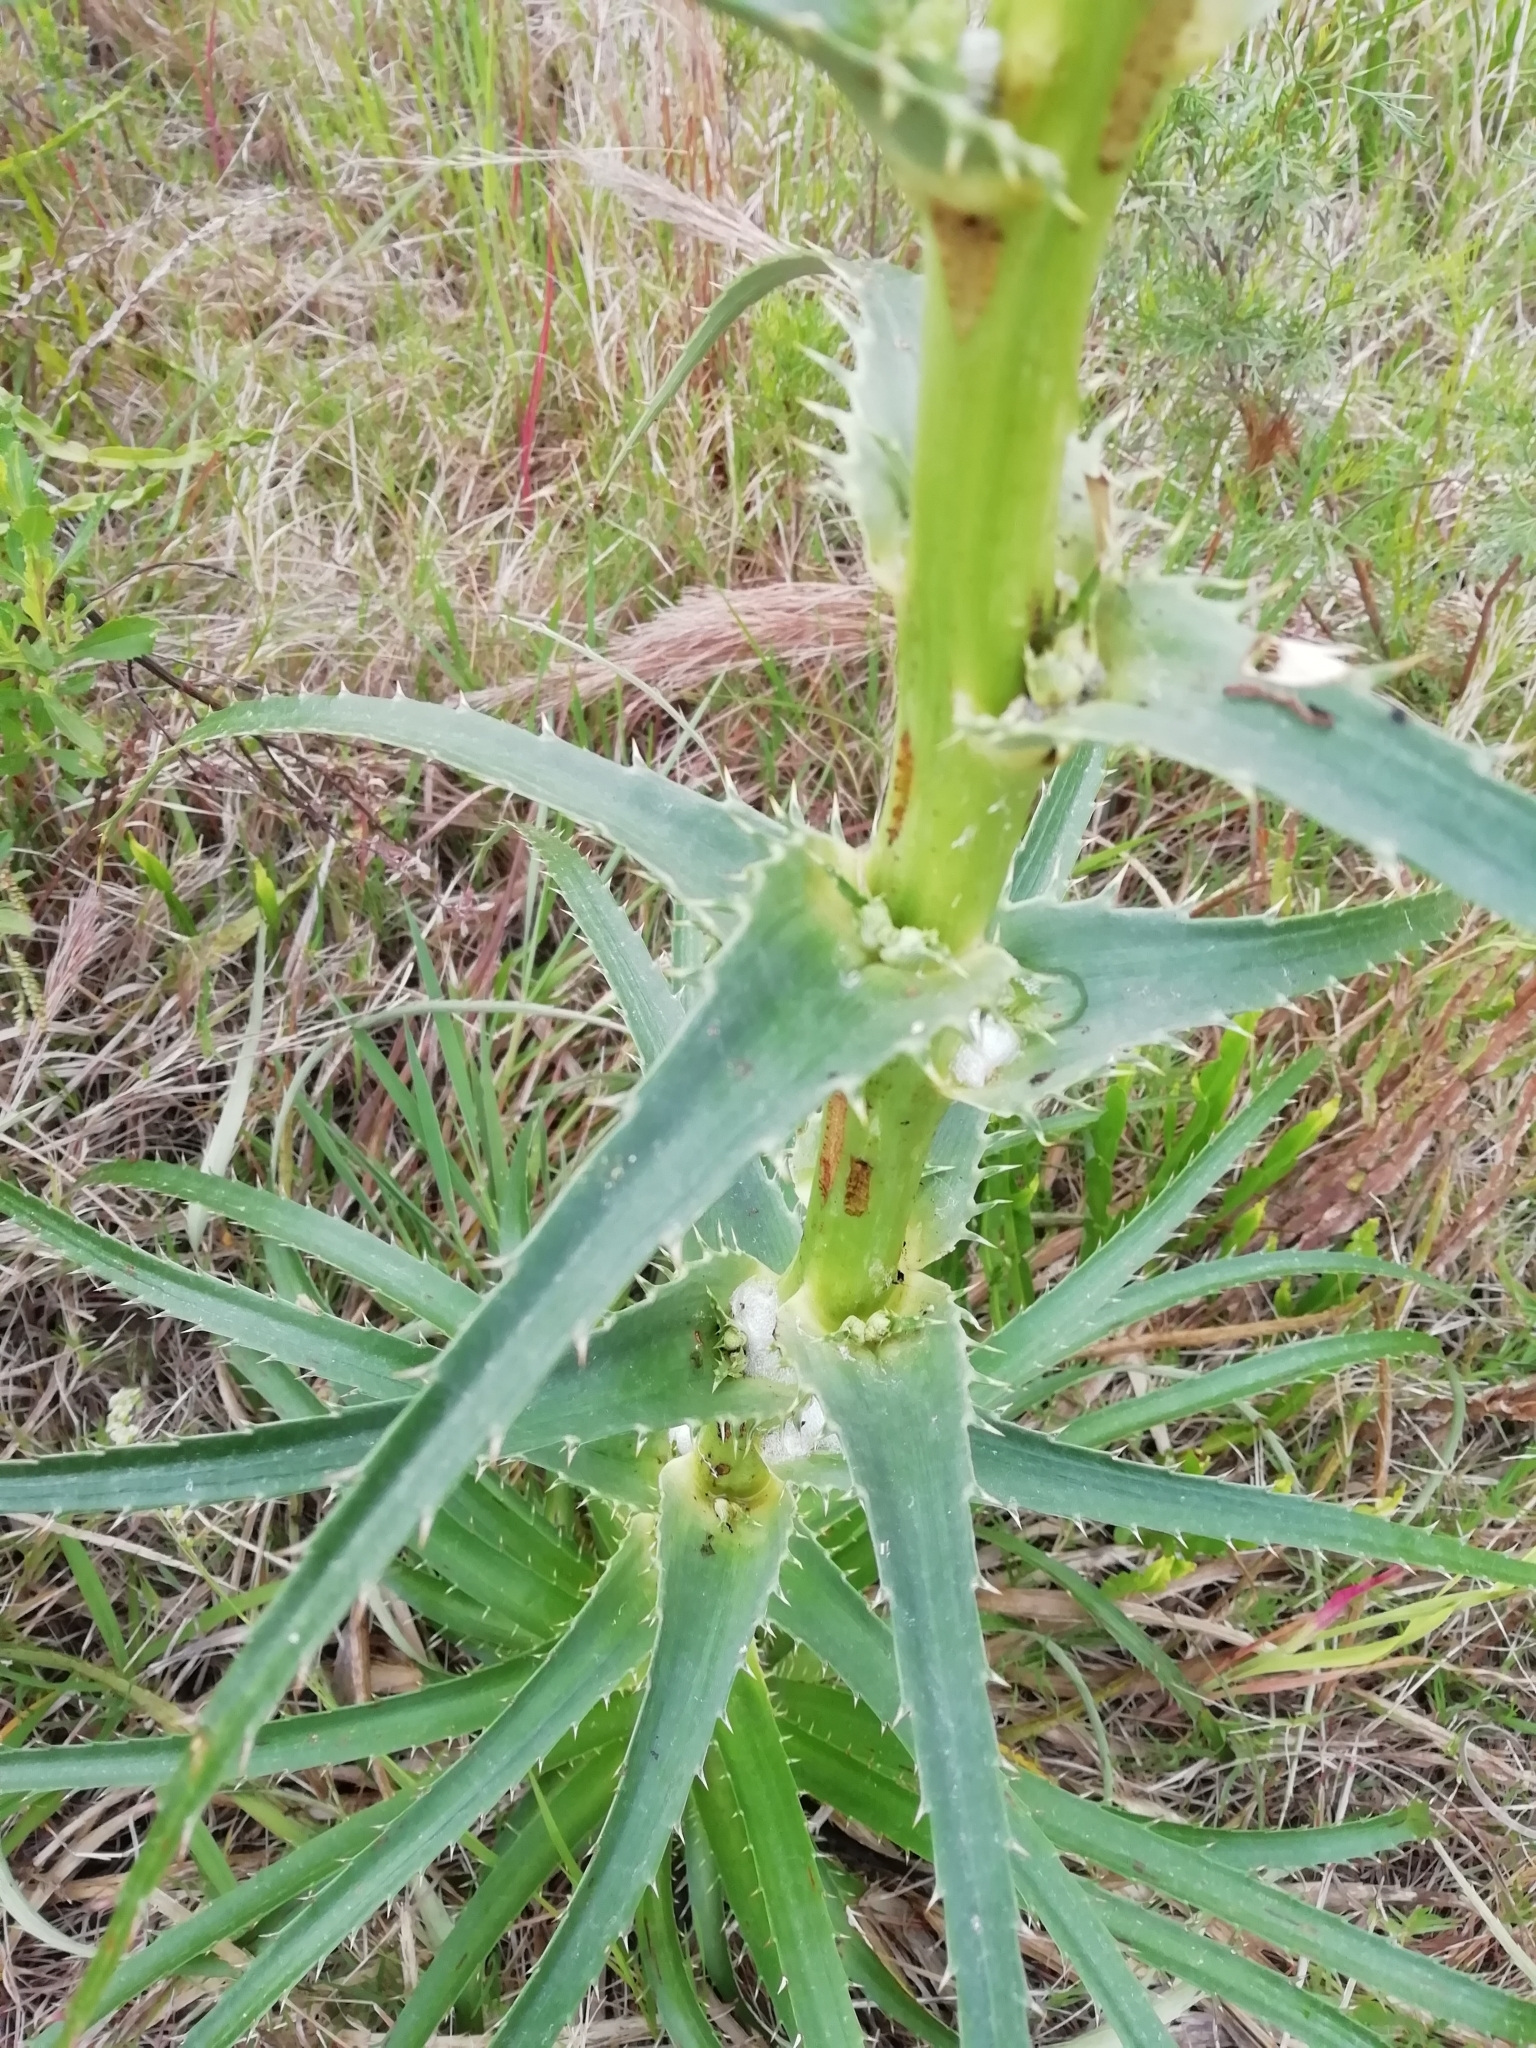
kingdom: Plantae
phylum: Tracheophyta
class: Magnoliopsida
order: Apiales
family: Apiaceae
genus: Eryngium
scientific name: Eryngium horridum
